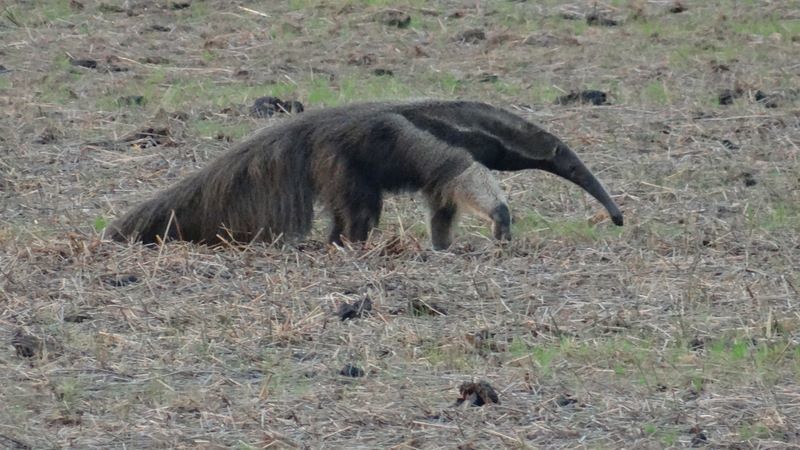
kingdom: Animalia
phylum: Chordata
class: Mammalia
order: Pilosa
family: Myrmecophagidae
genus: Myrmecophaga
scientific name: Myrmecophaga tridactyla
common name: Giant anteater
